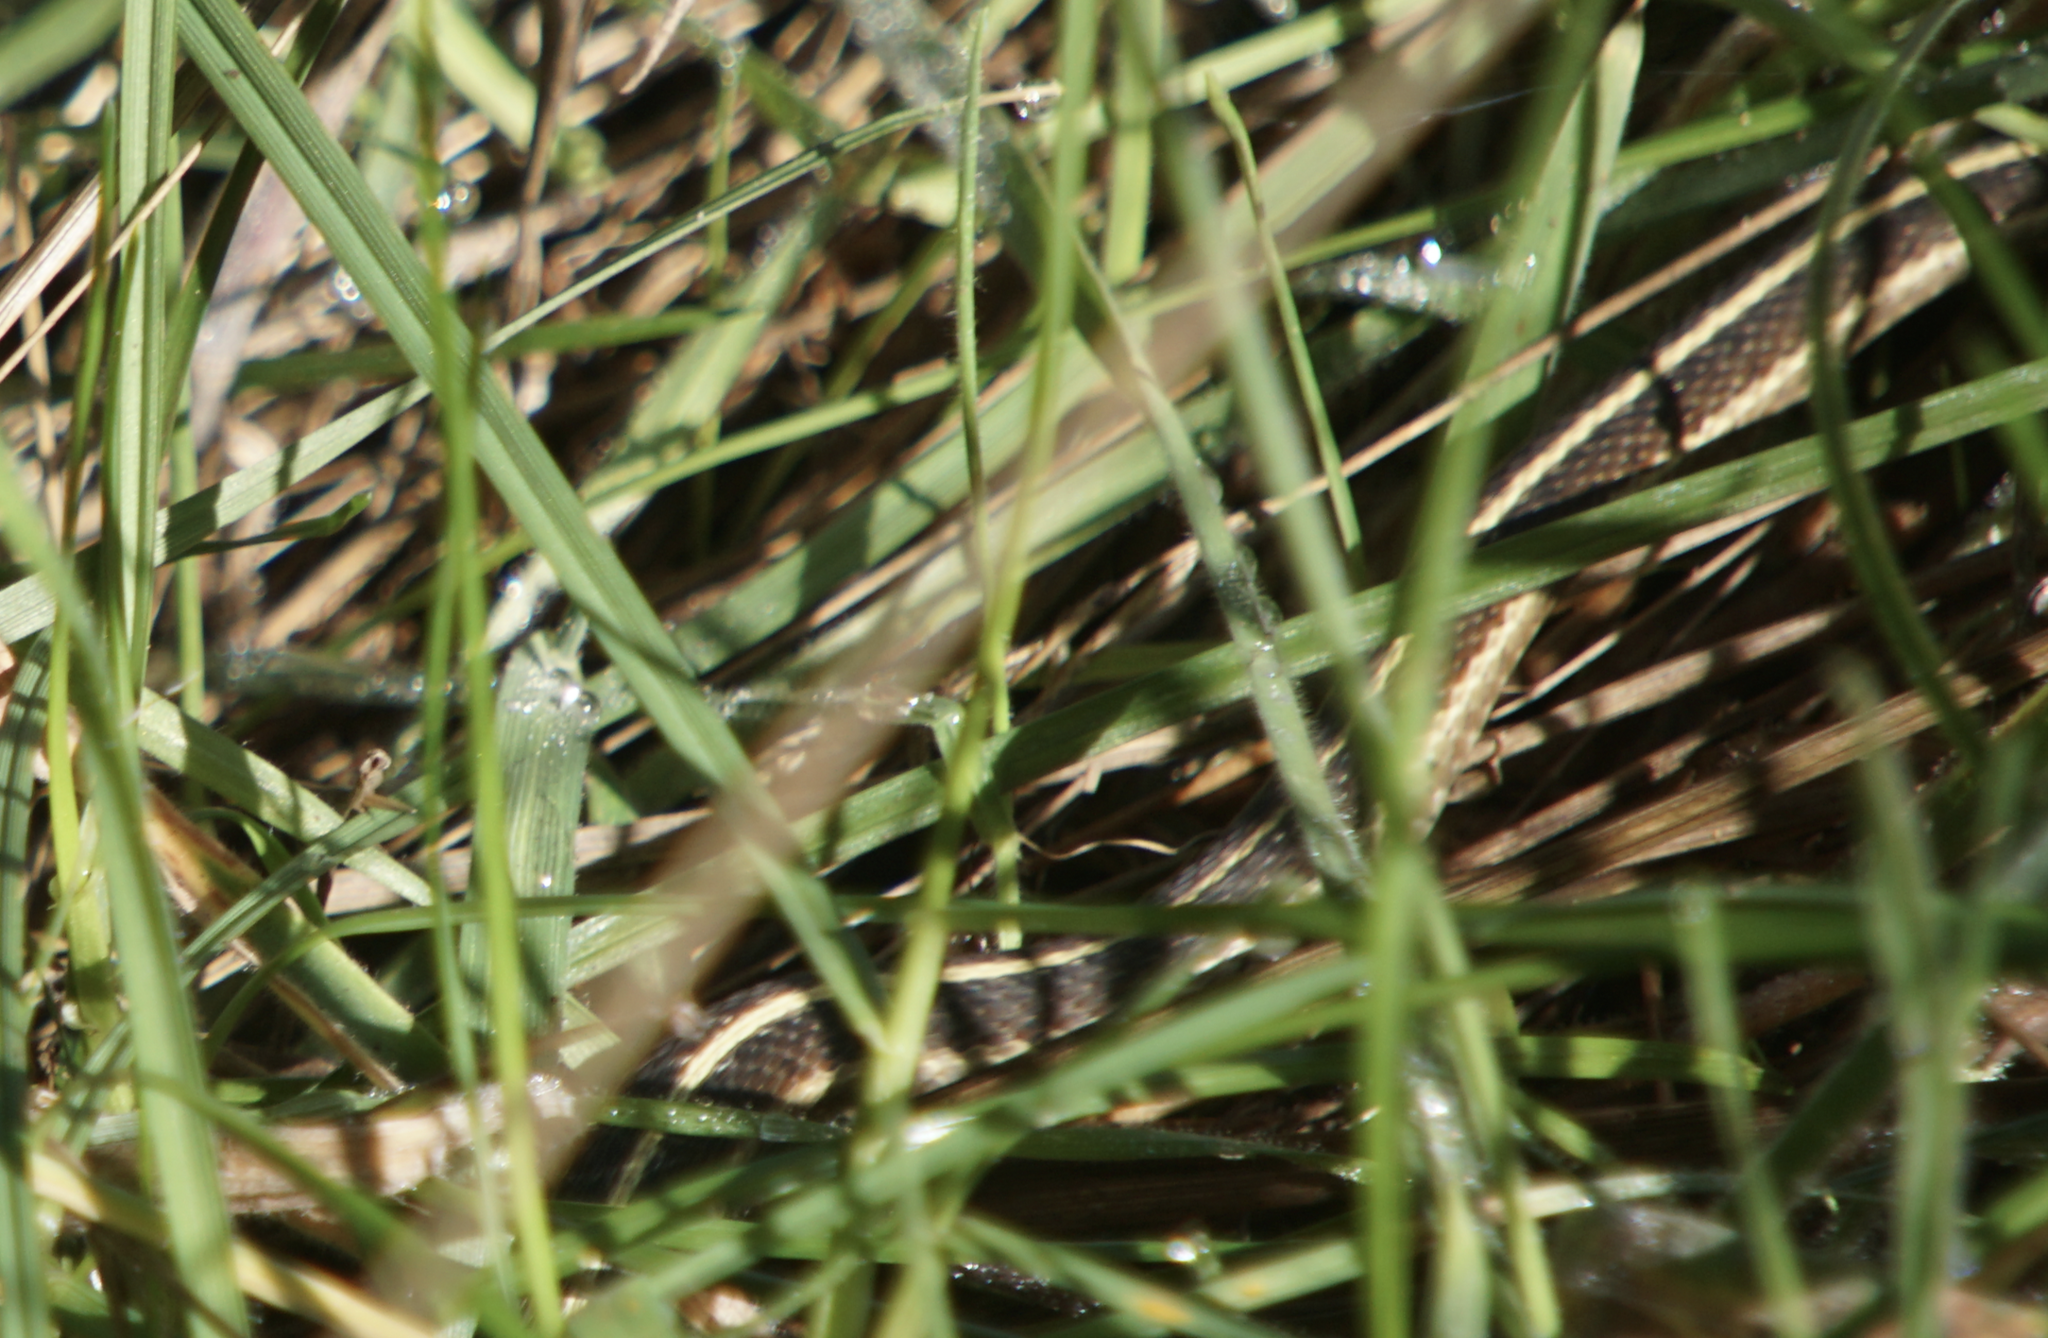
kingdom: Animalia
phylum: Chordata
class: Squamata
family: Colubridae
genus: Thamnophis
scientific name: Thamnophis elegans
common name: Western terrestrial garter snake
